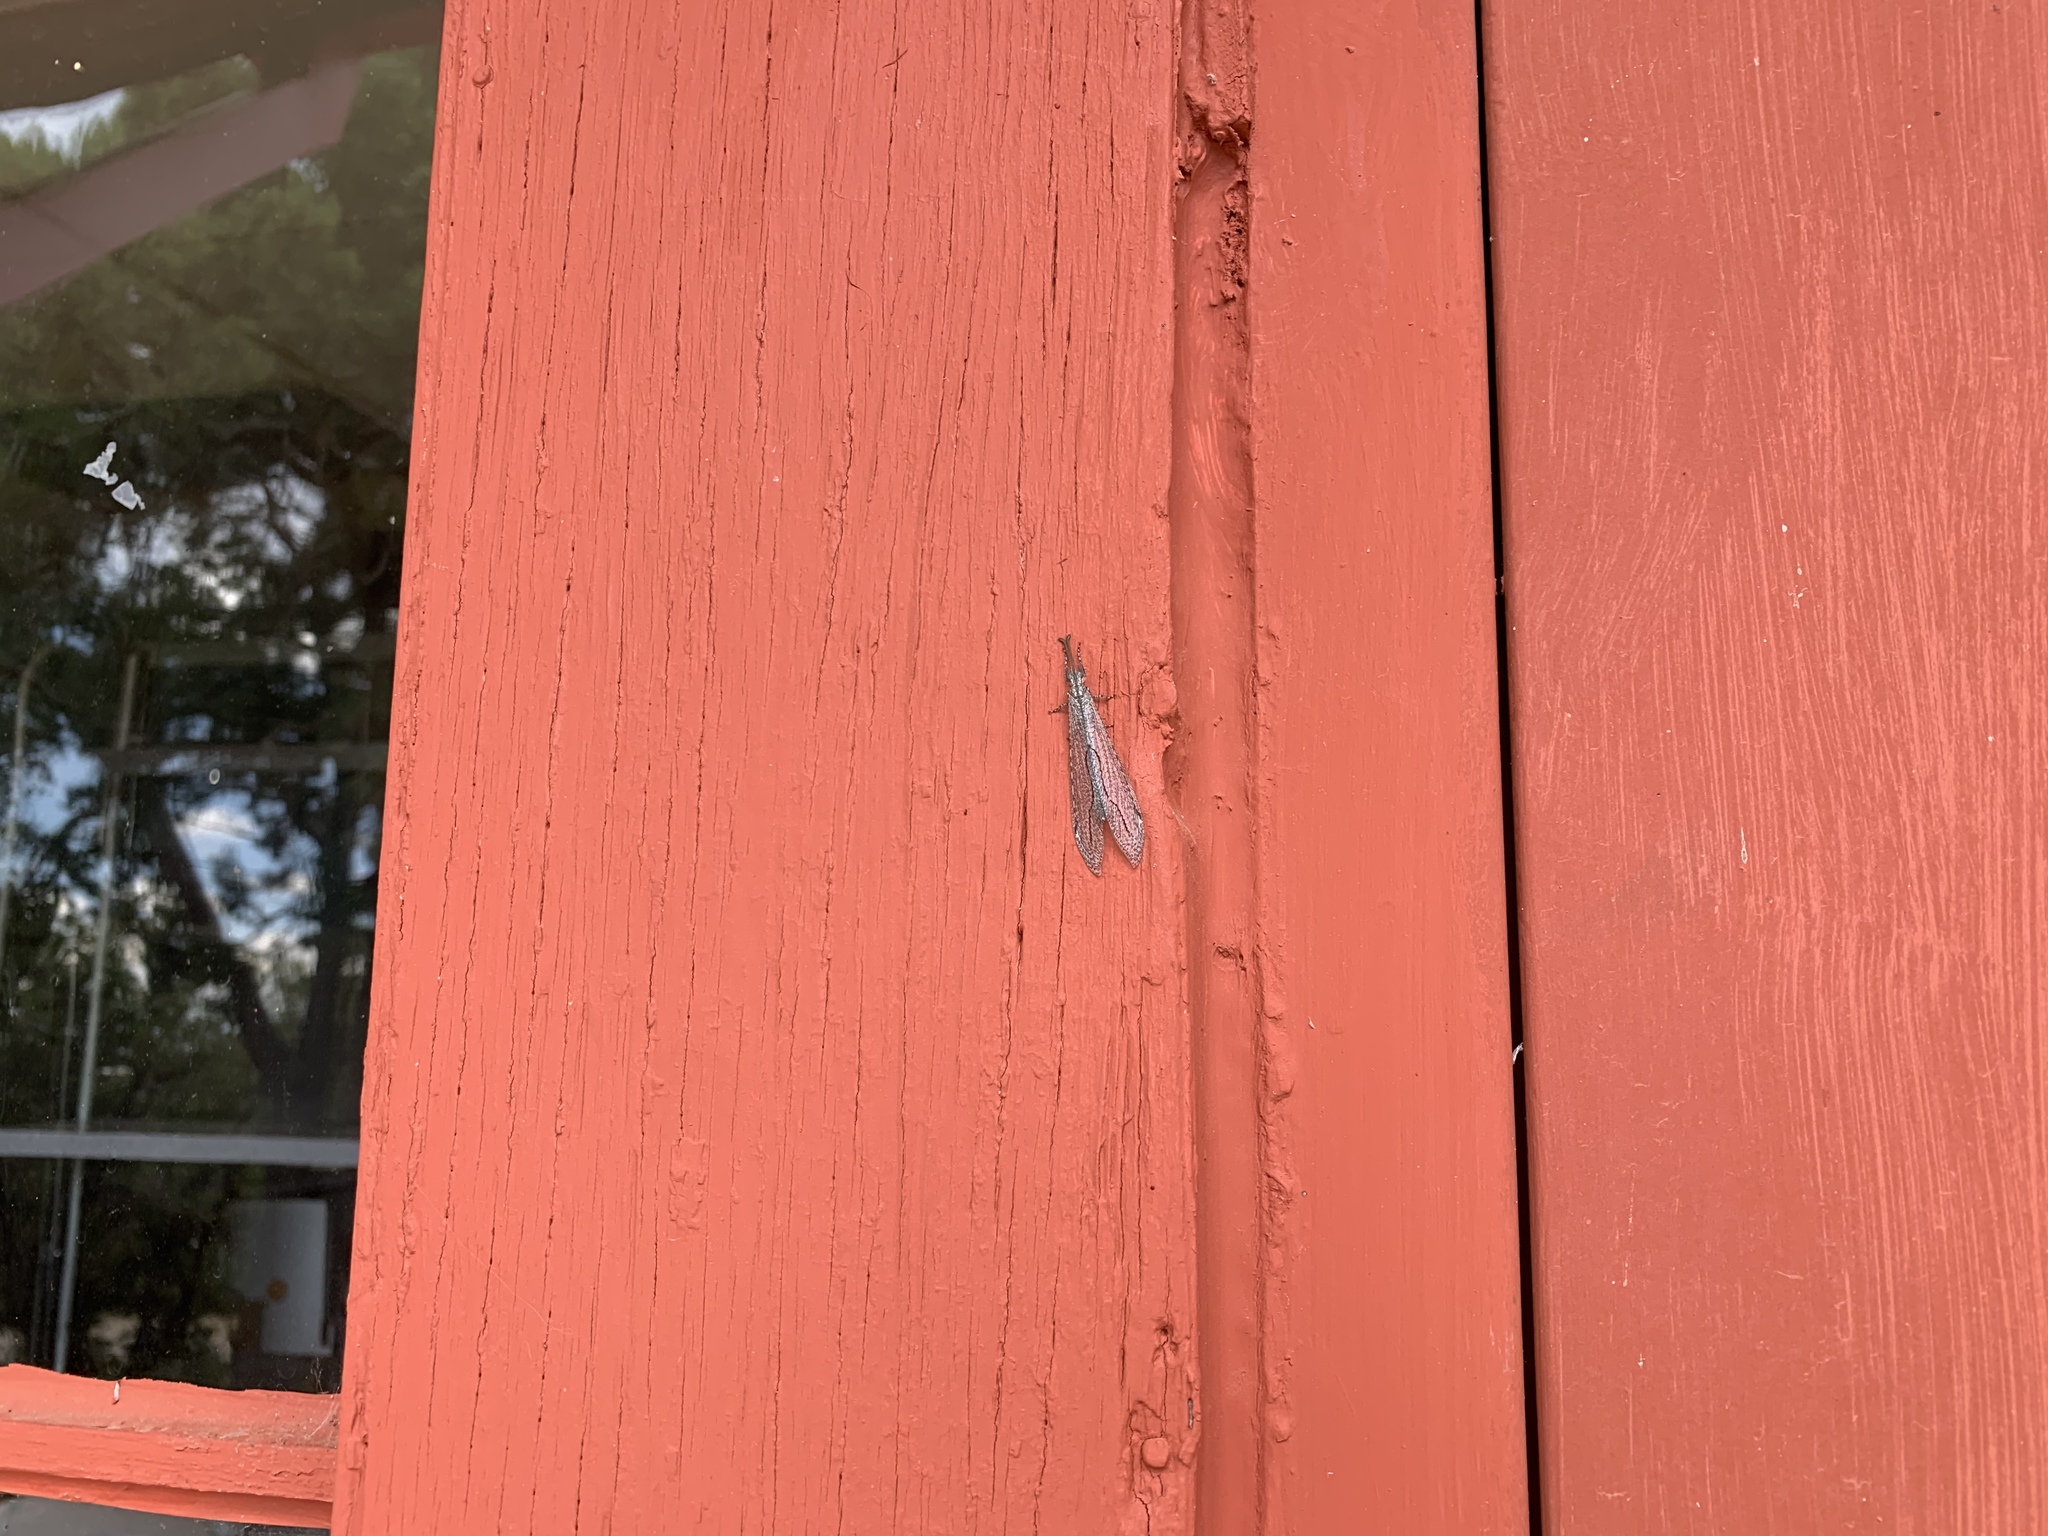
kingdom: Animalia
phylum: Arthropoda
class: Insecta
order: Neuroptera
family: Myrmeleontidae
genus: Purenleon
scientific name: Purenleon connexus
